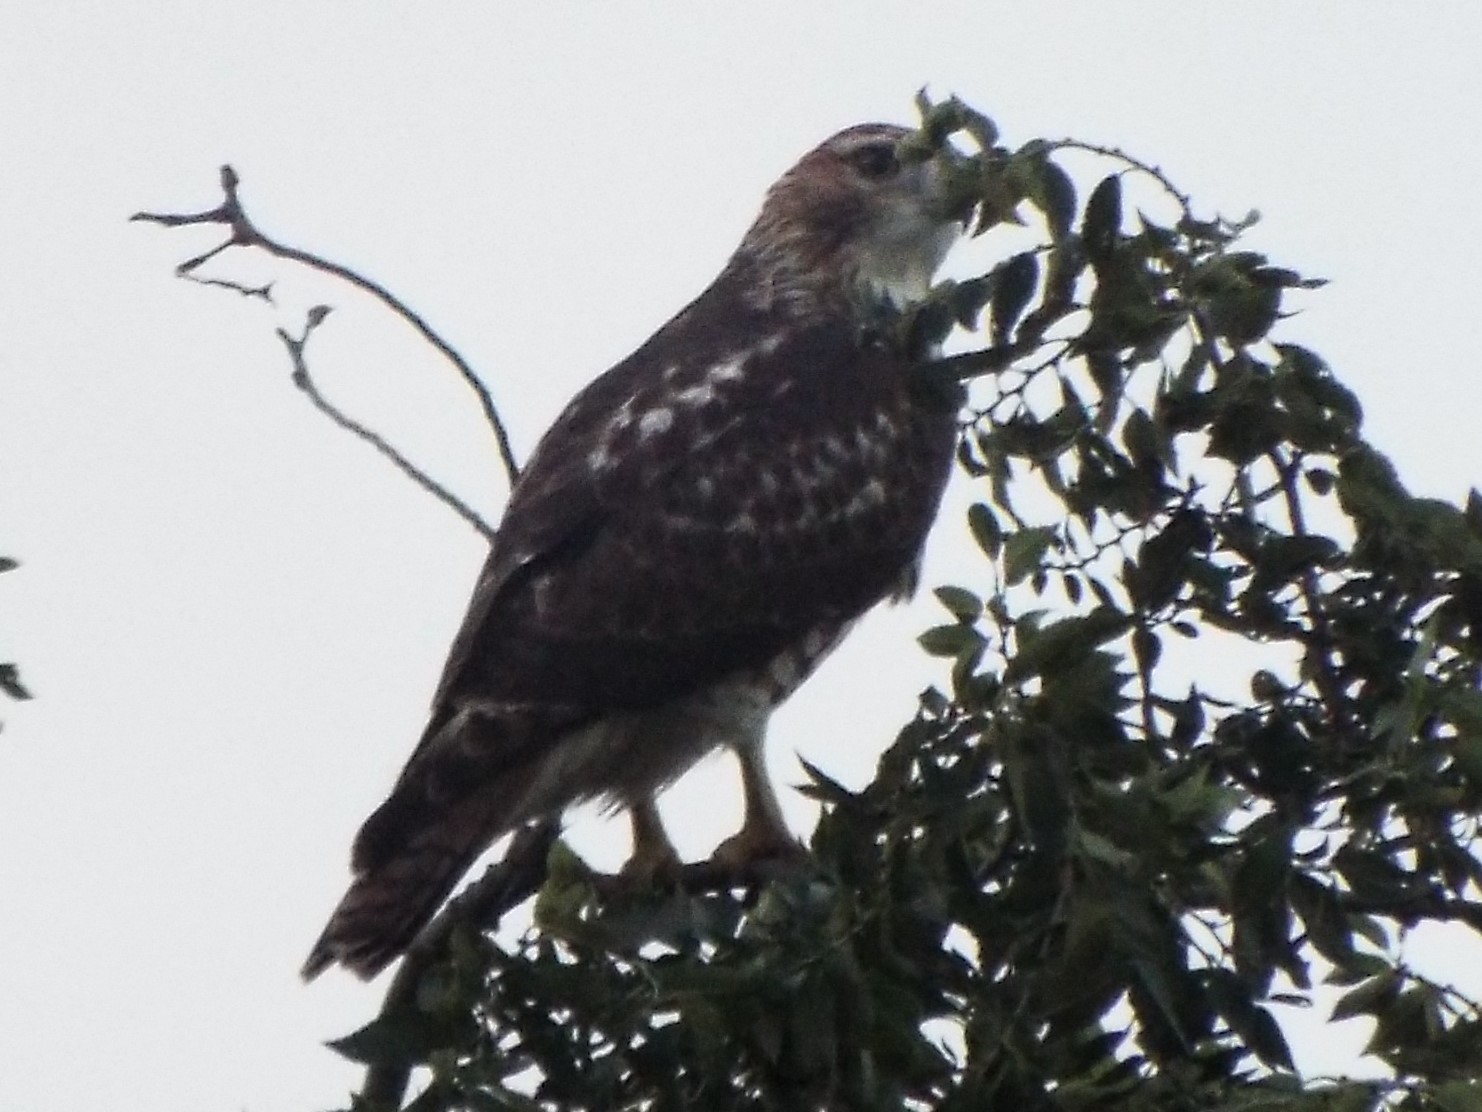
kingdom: Animalia
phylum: Chordata
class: Aves
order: Accipitriformes
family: Accipitridae
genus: Buteo
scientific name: Buteo jamaicensis
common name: Red-tailed hawk
